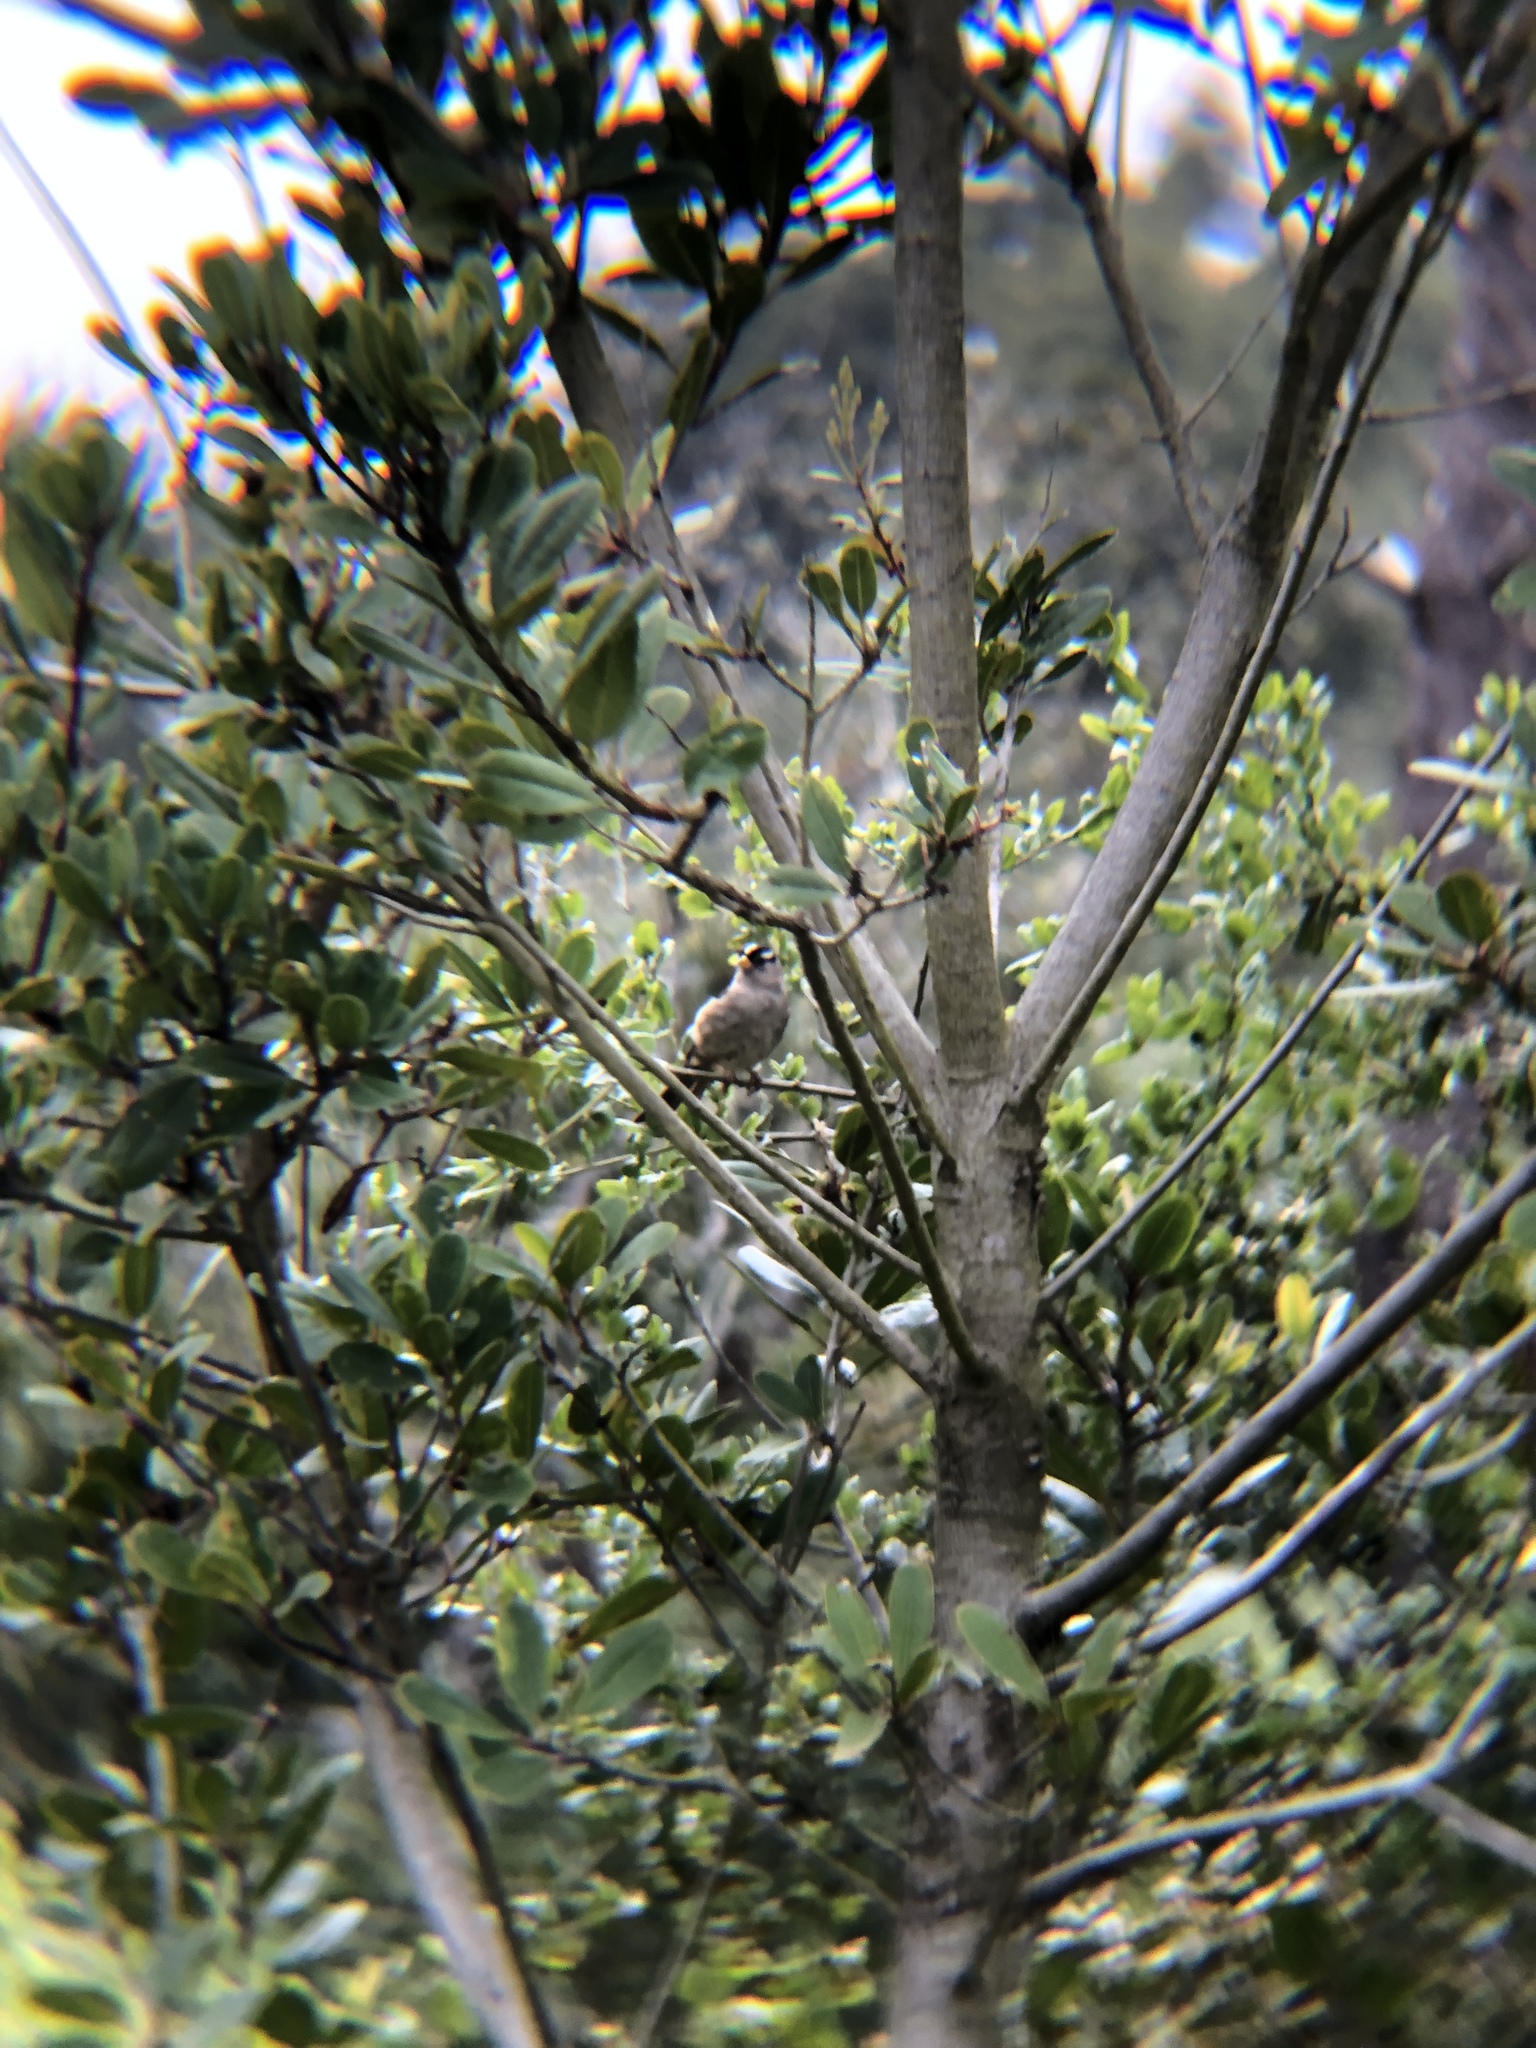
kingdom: Animalia
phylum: Chordata
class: Aves
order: Passeriformes
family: Passerellidae
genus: Zonotrichia
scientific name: Zonotrichia leucophrys
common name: White-crowned sparrow
